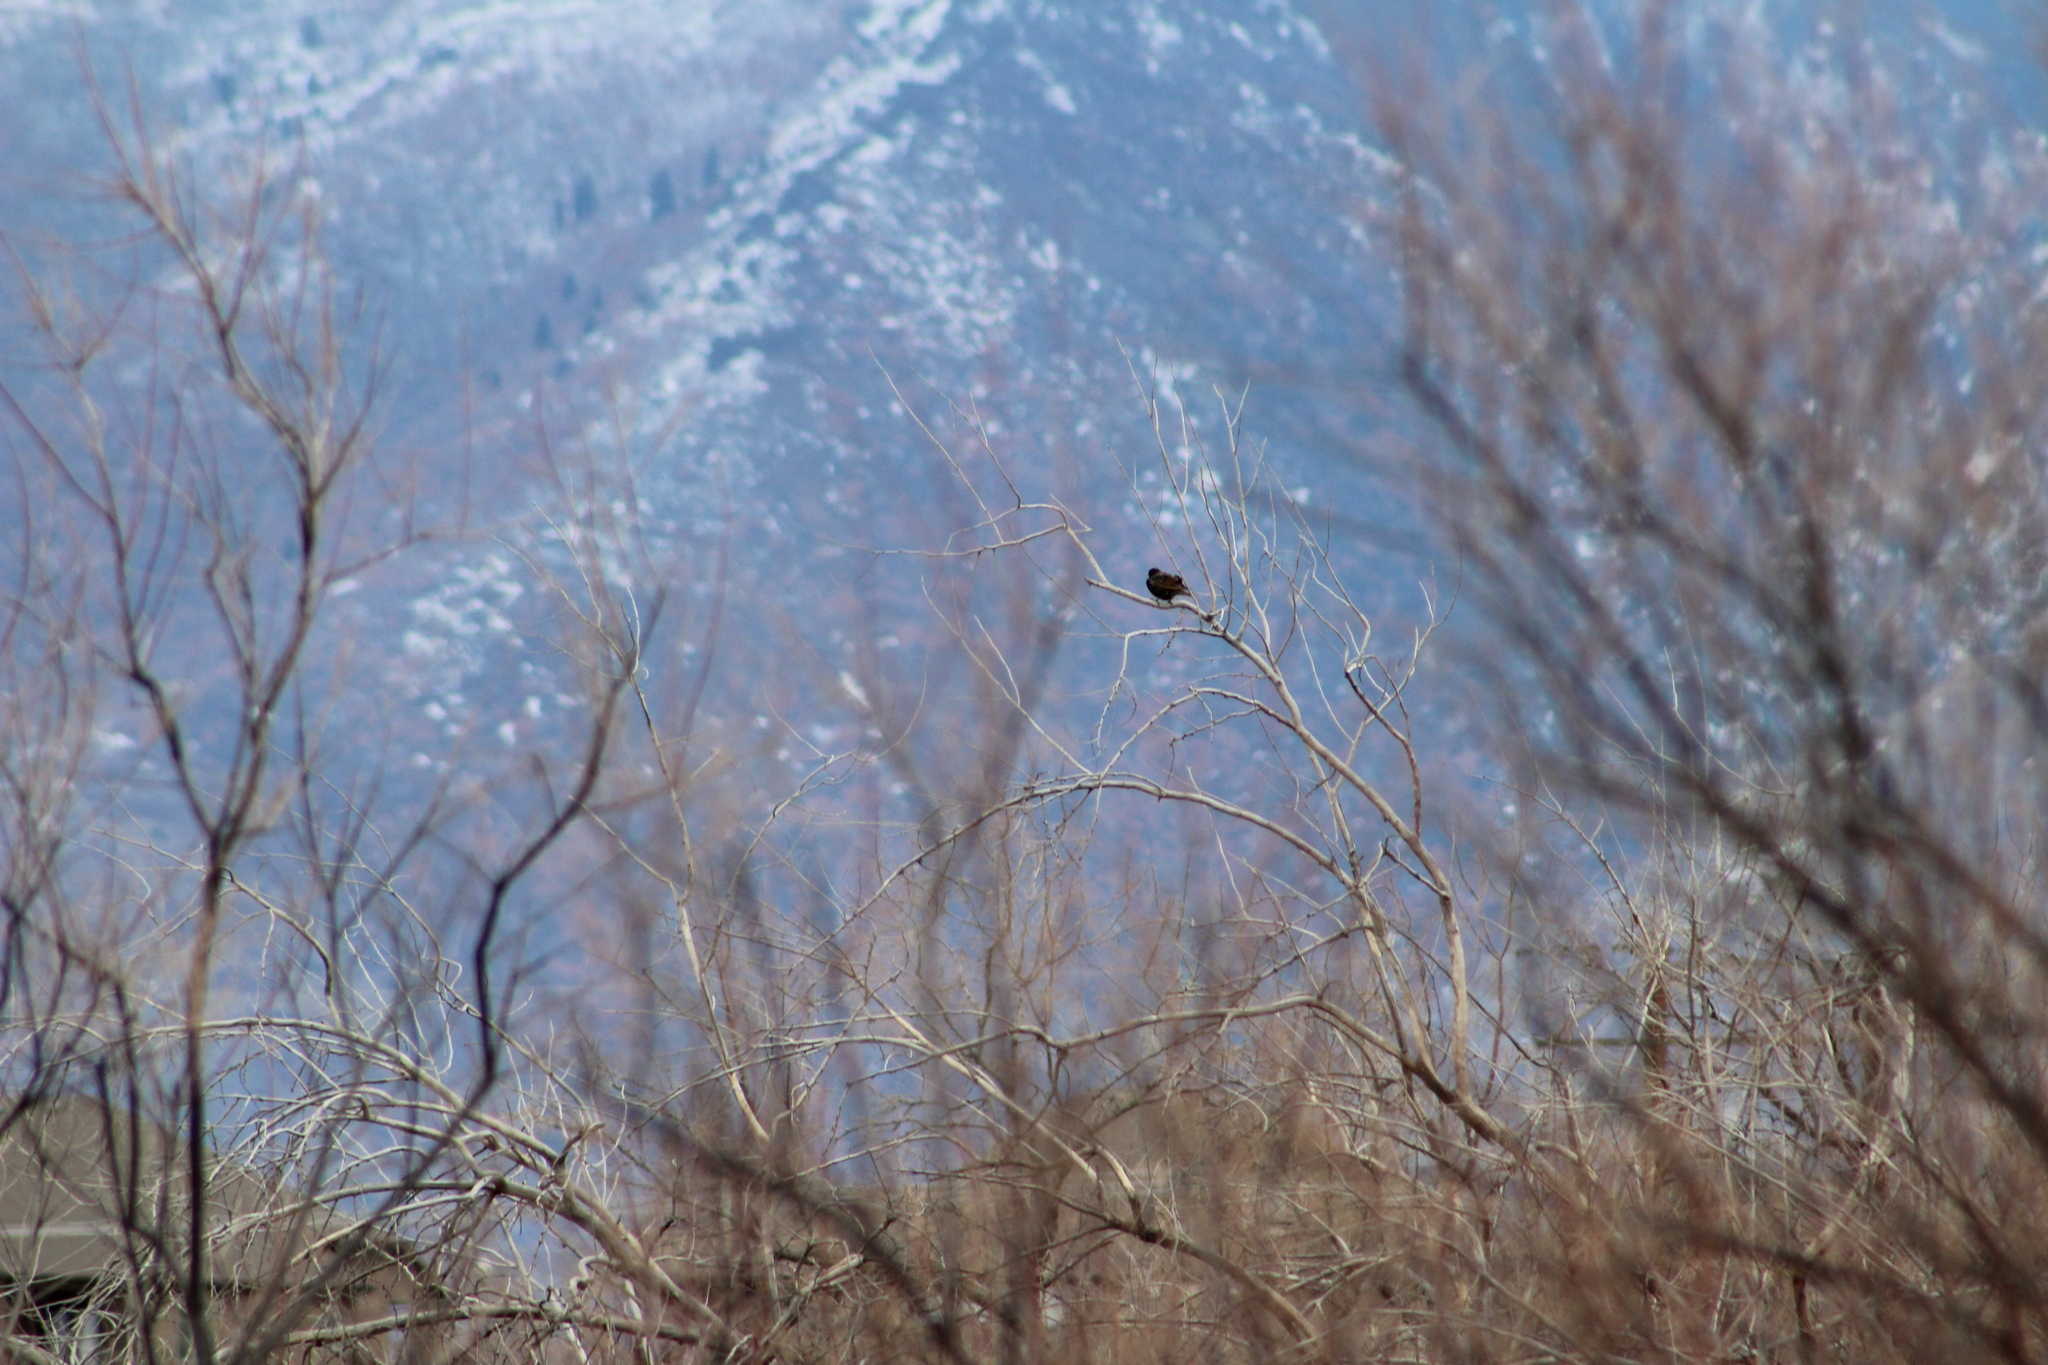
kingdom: Animalia
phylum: Chordata
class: Aves
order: Passeriformes
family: Sturnidae
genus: Sturnus
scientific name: Sturnus vulgaris
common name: Common starling
